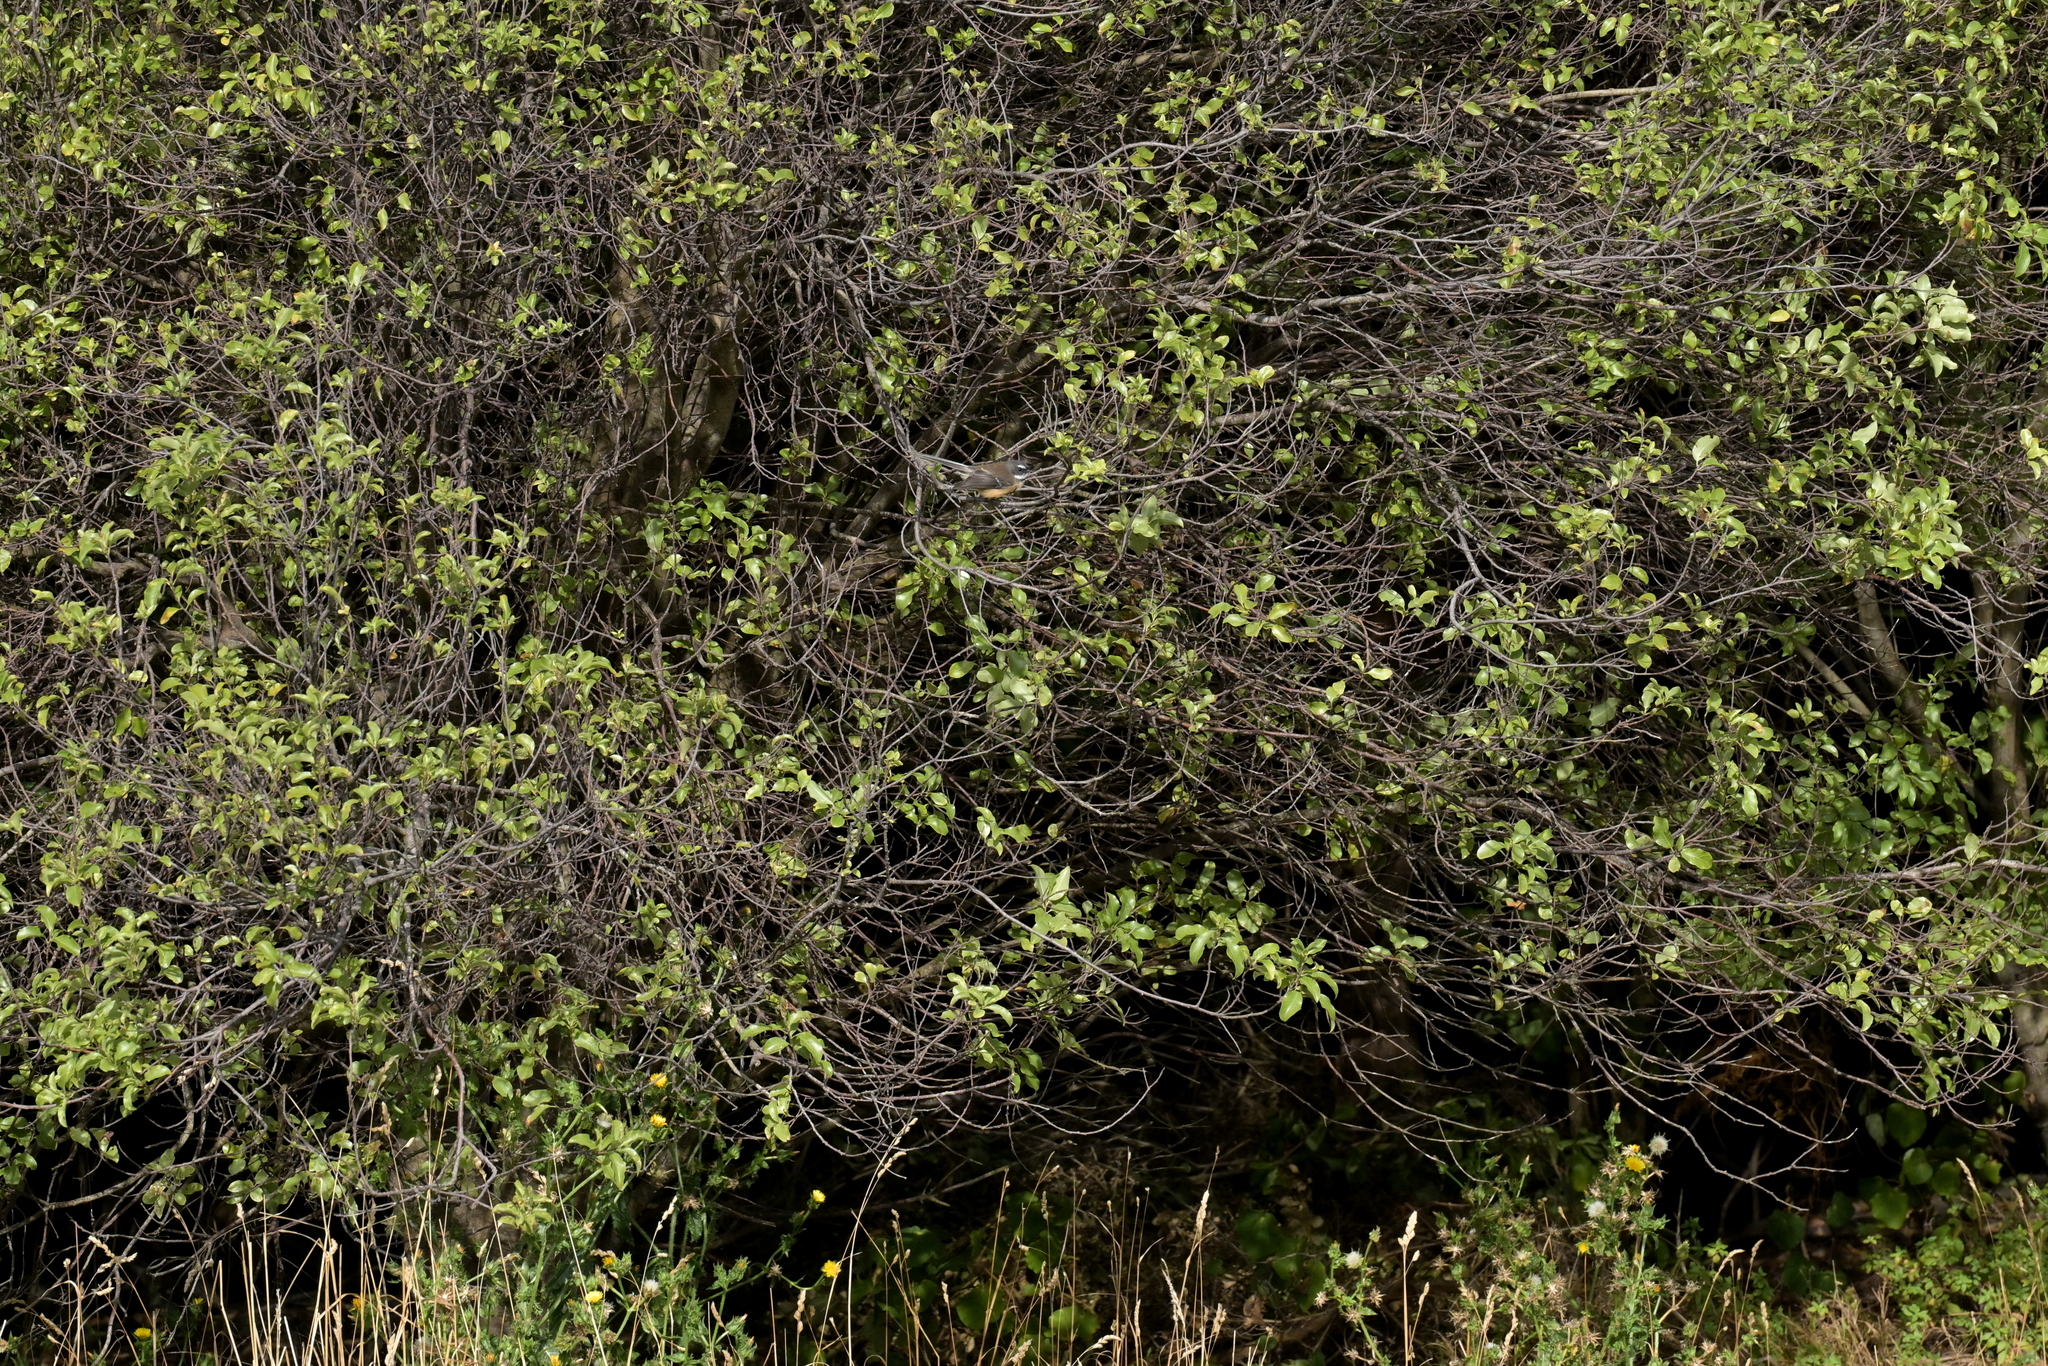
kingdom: Animalia
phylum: Chordata
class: Aves
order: Passeriformes
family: Rhipiduridae
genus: Rhipidura
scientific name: Rhipidura fuliginosa
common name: New zealand fantail
